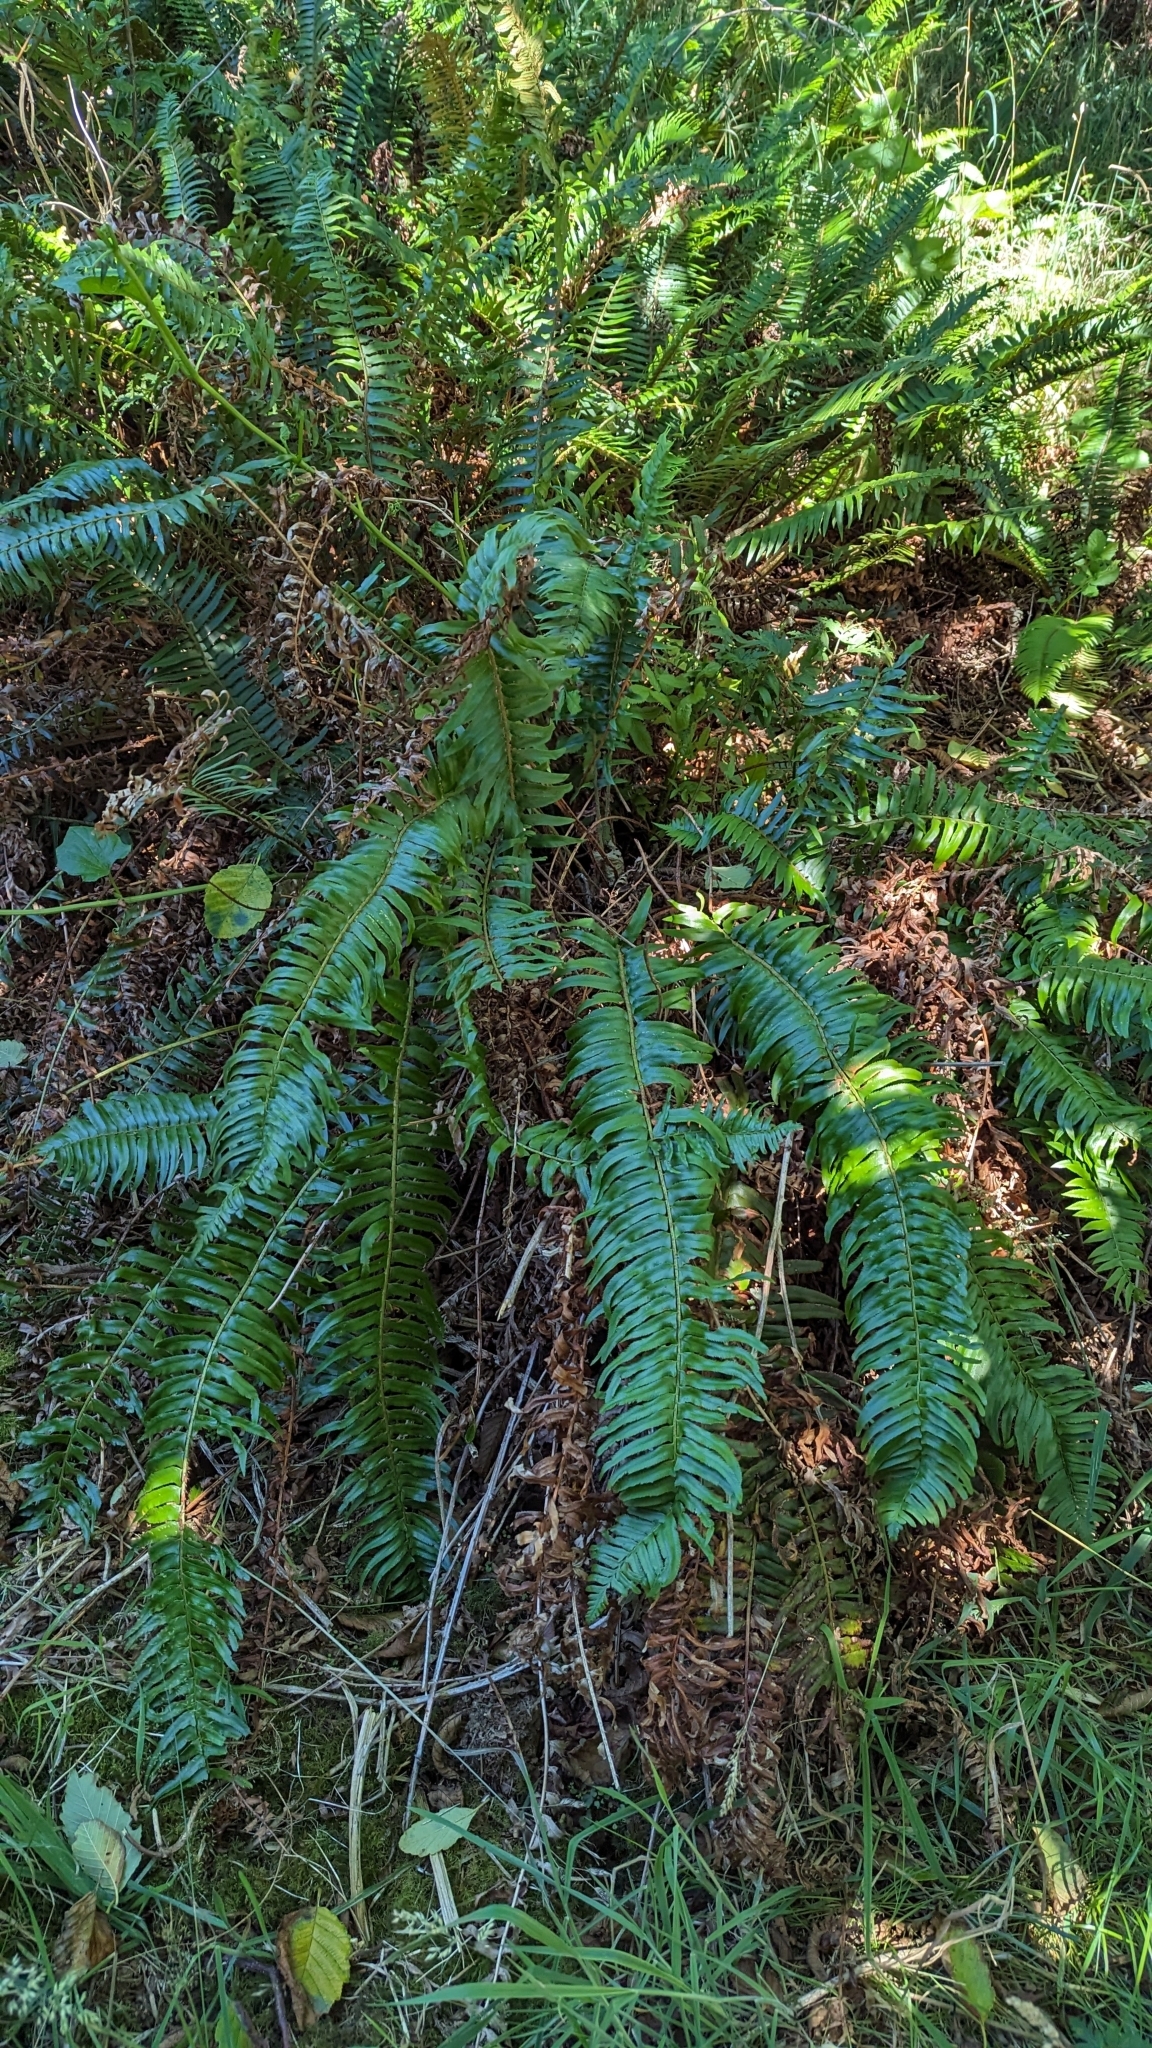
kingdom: Plantae
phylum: Tracheophyta
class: Polypodiopsida
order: Polypodiales
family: Dryopteridaceae
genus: Polystichum
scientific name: Polystichum munitum
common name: Western sword-fern
